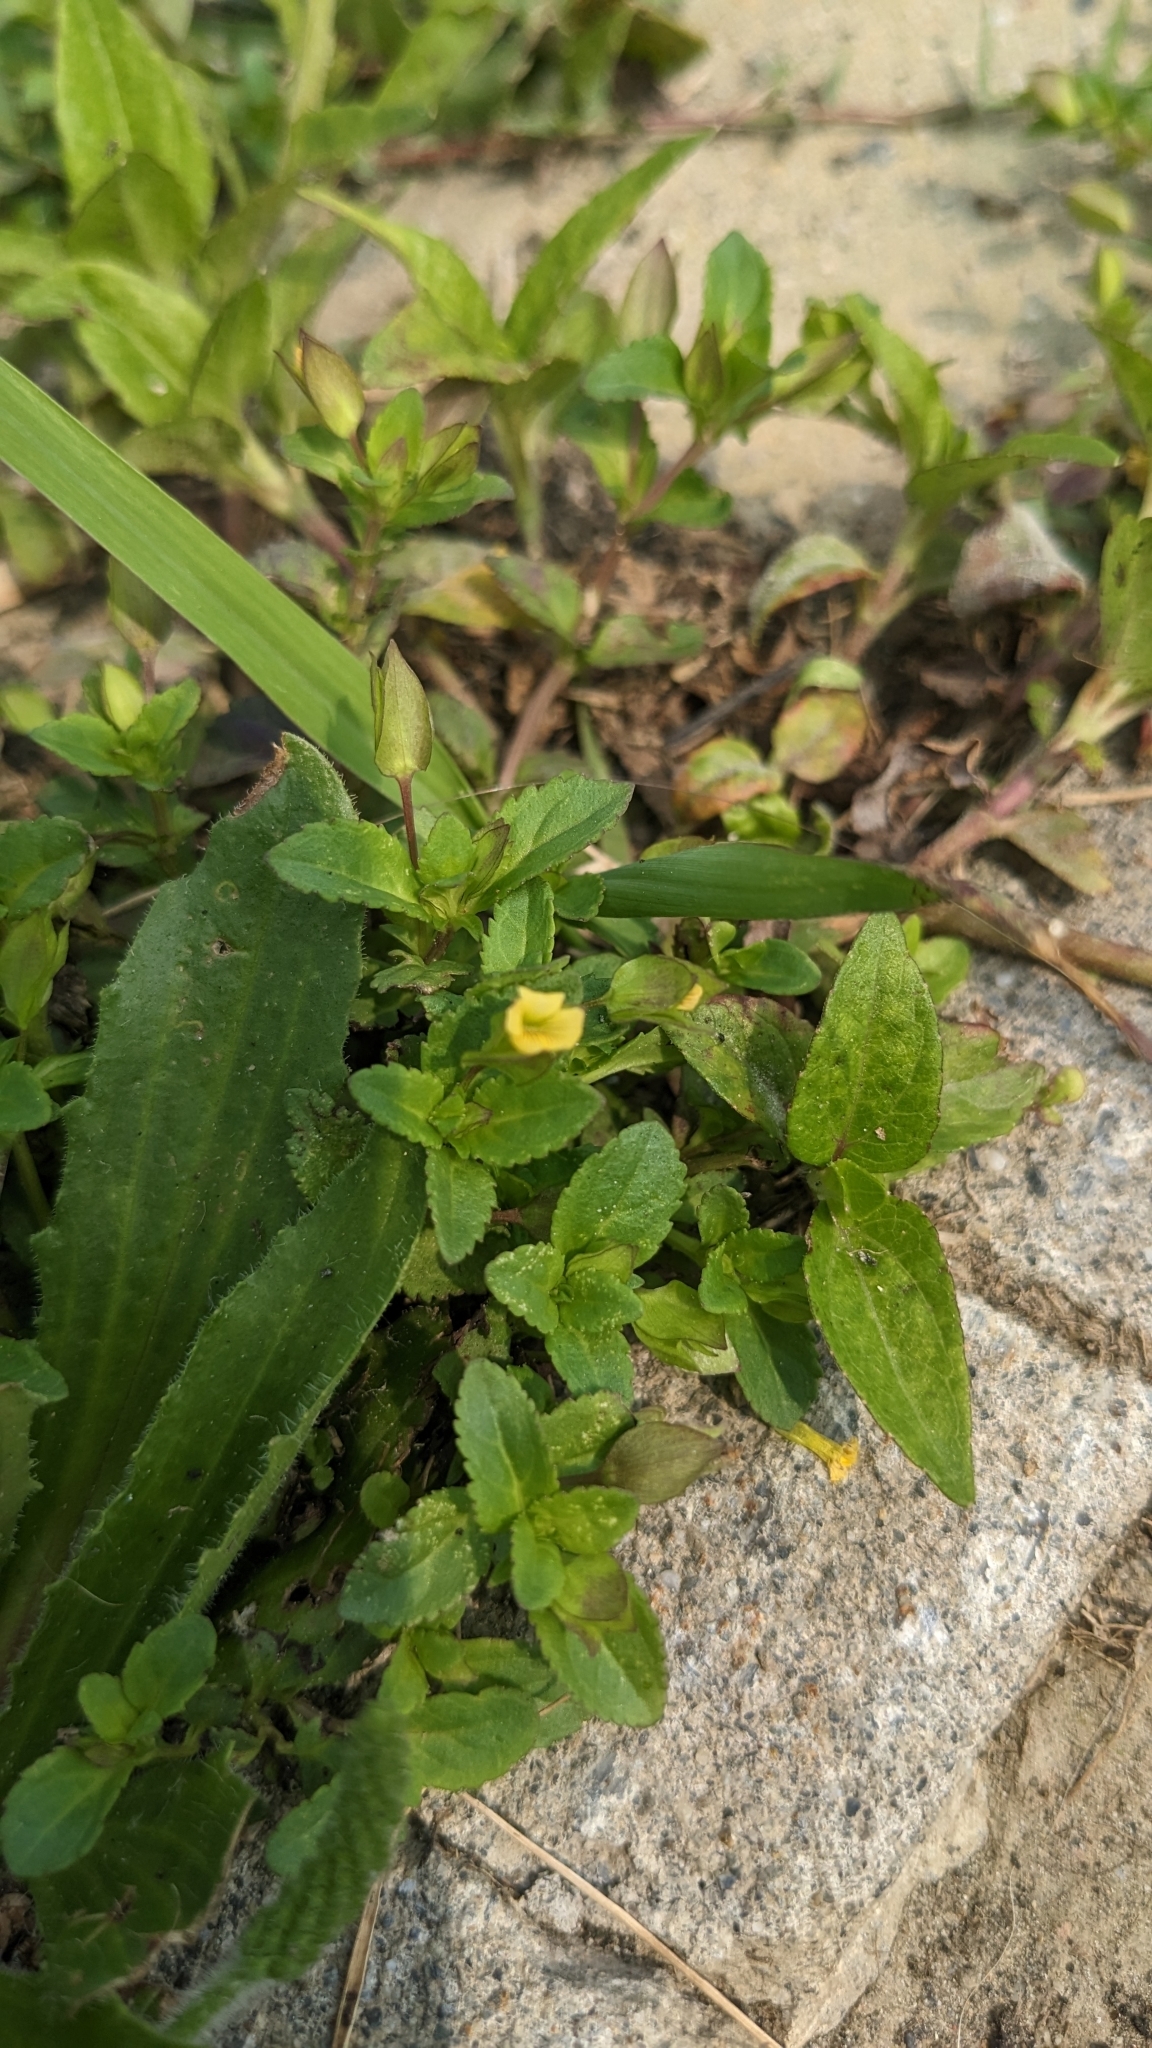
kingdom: Plantae
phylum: Tracheophyta
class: Magnoliopsida
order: Lamiales
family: Plantaginaceae
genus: Mecardonia
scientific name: Mecardonia procumbens
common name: Baby jump-up
